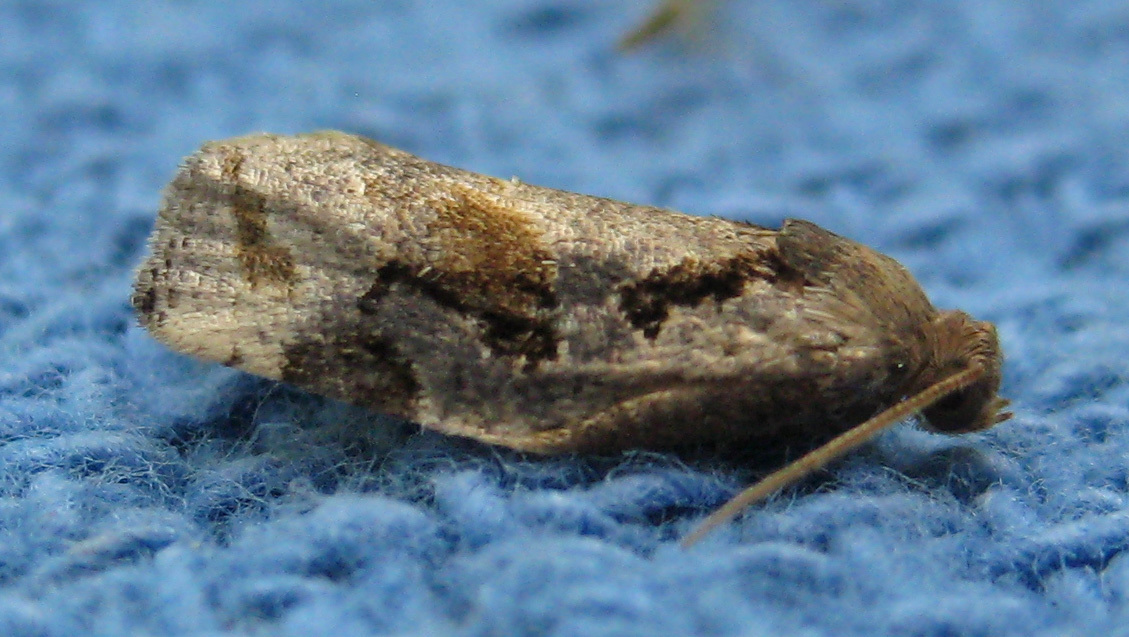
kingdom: Animalia
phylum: Arthropoda
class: Insecta
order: Lepidoptera
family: Tortricidae
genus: Archips
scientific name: Archips grisea
